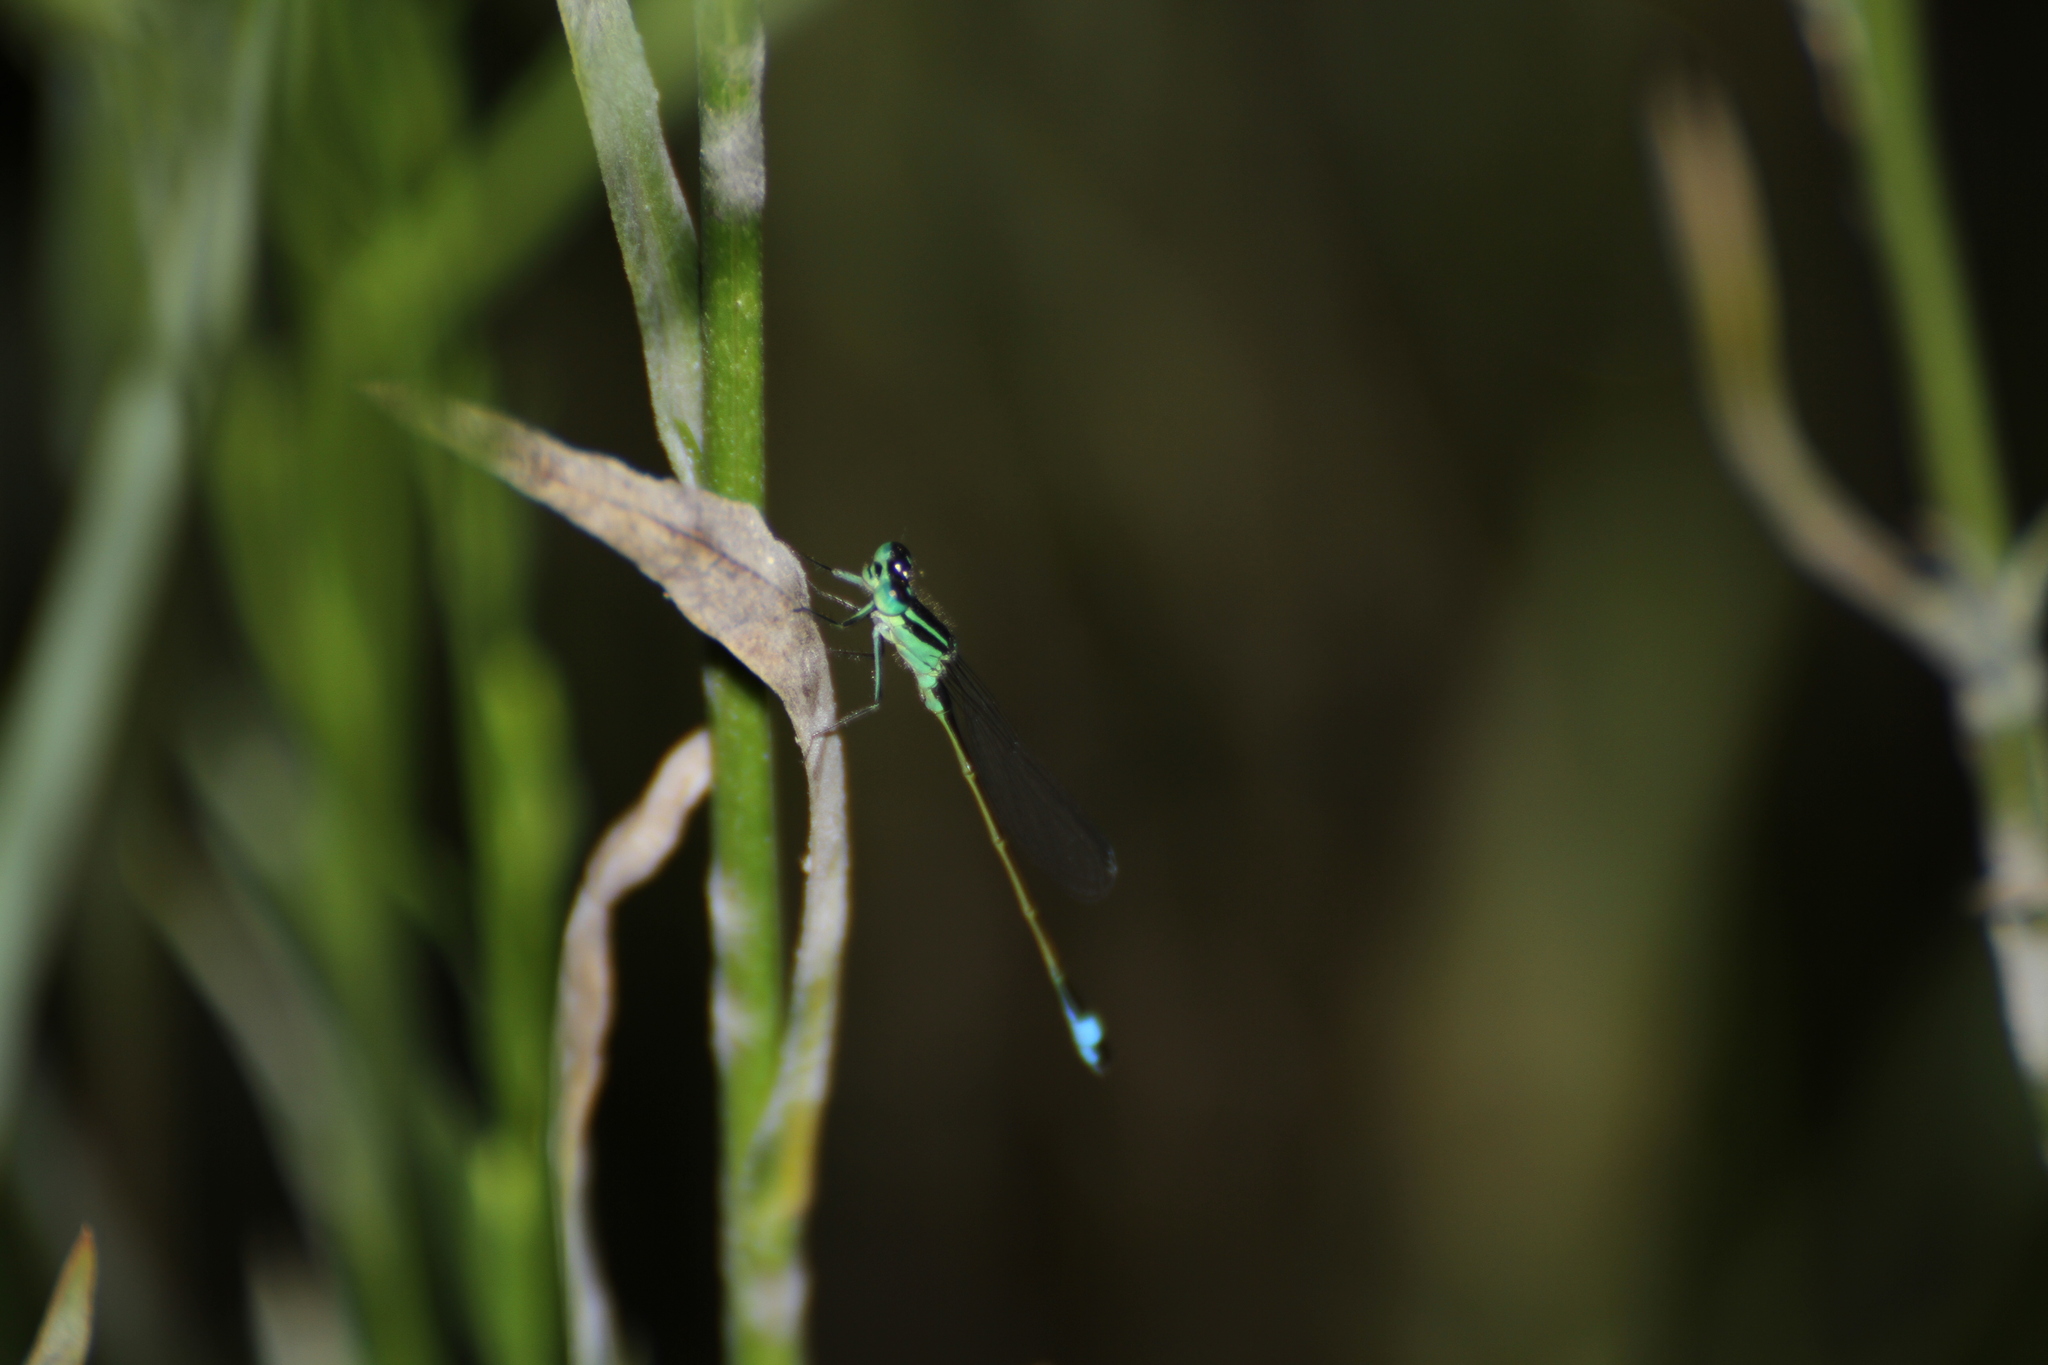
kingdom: Animalia
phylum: Arthropoda
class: Insecta
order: Odonata
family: Coenagrionidae
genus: Ischnura
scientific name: Ischnura elegans
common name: Blue-tailed damselfly
